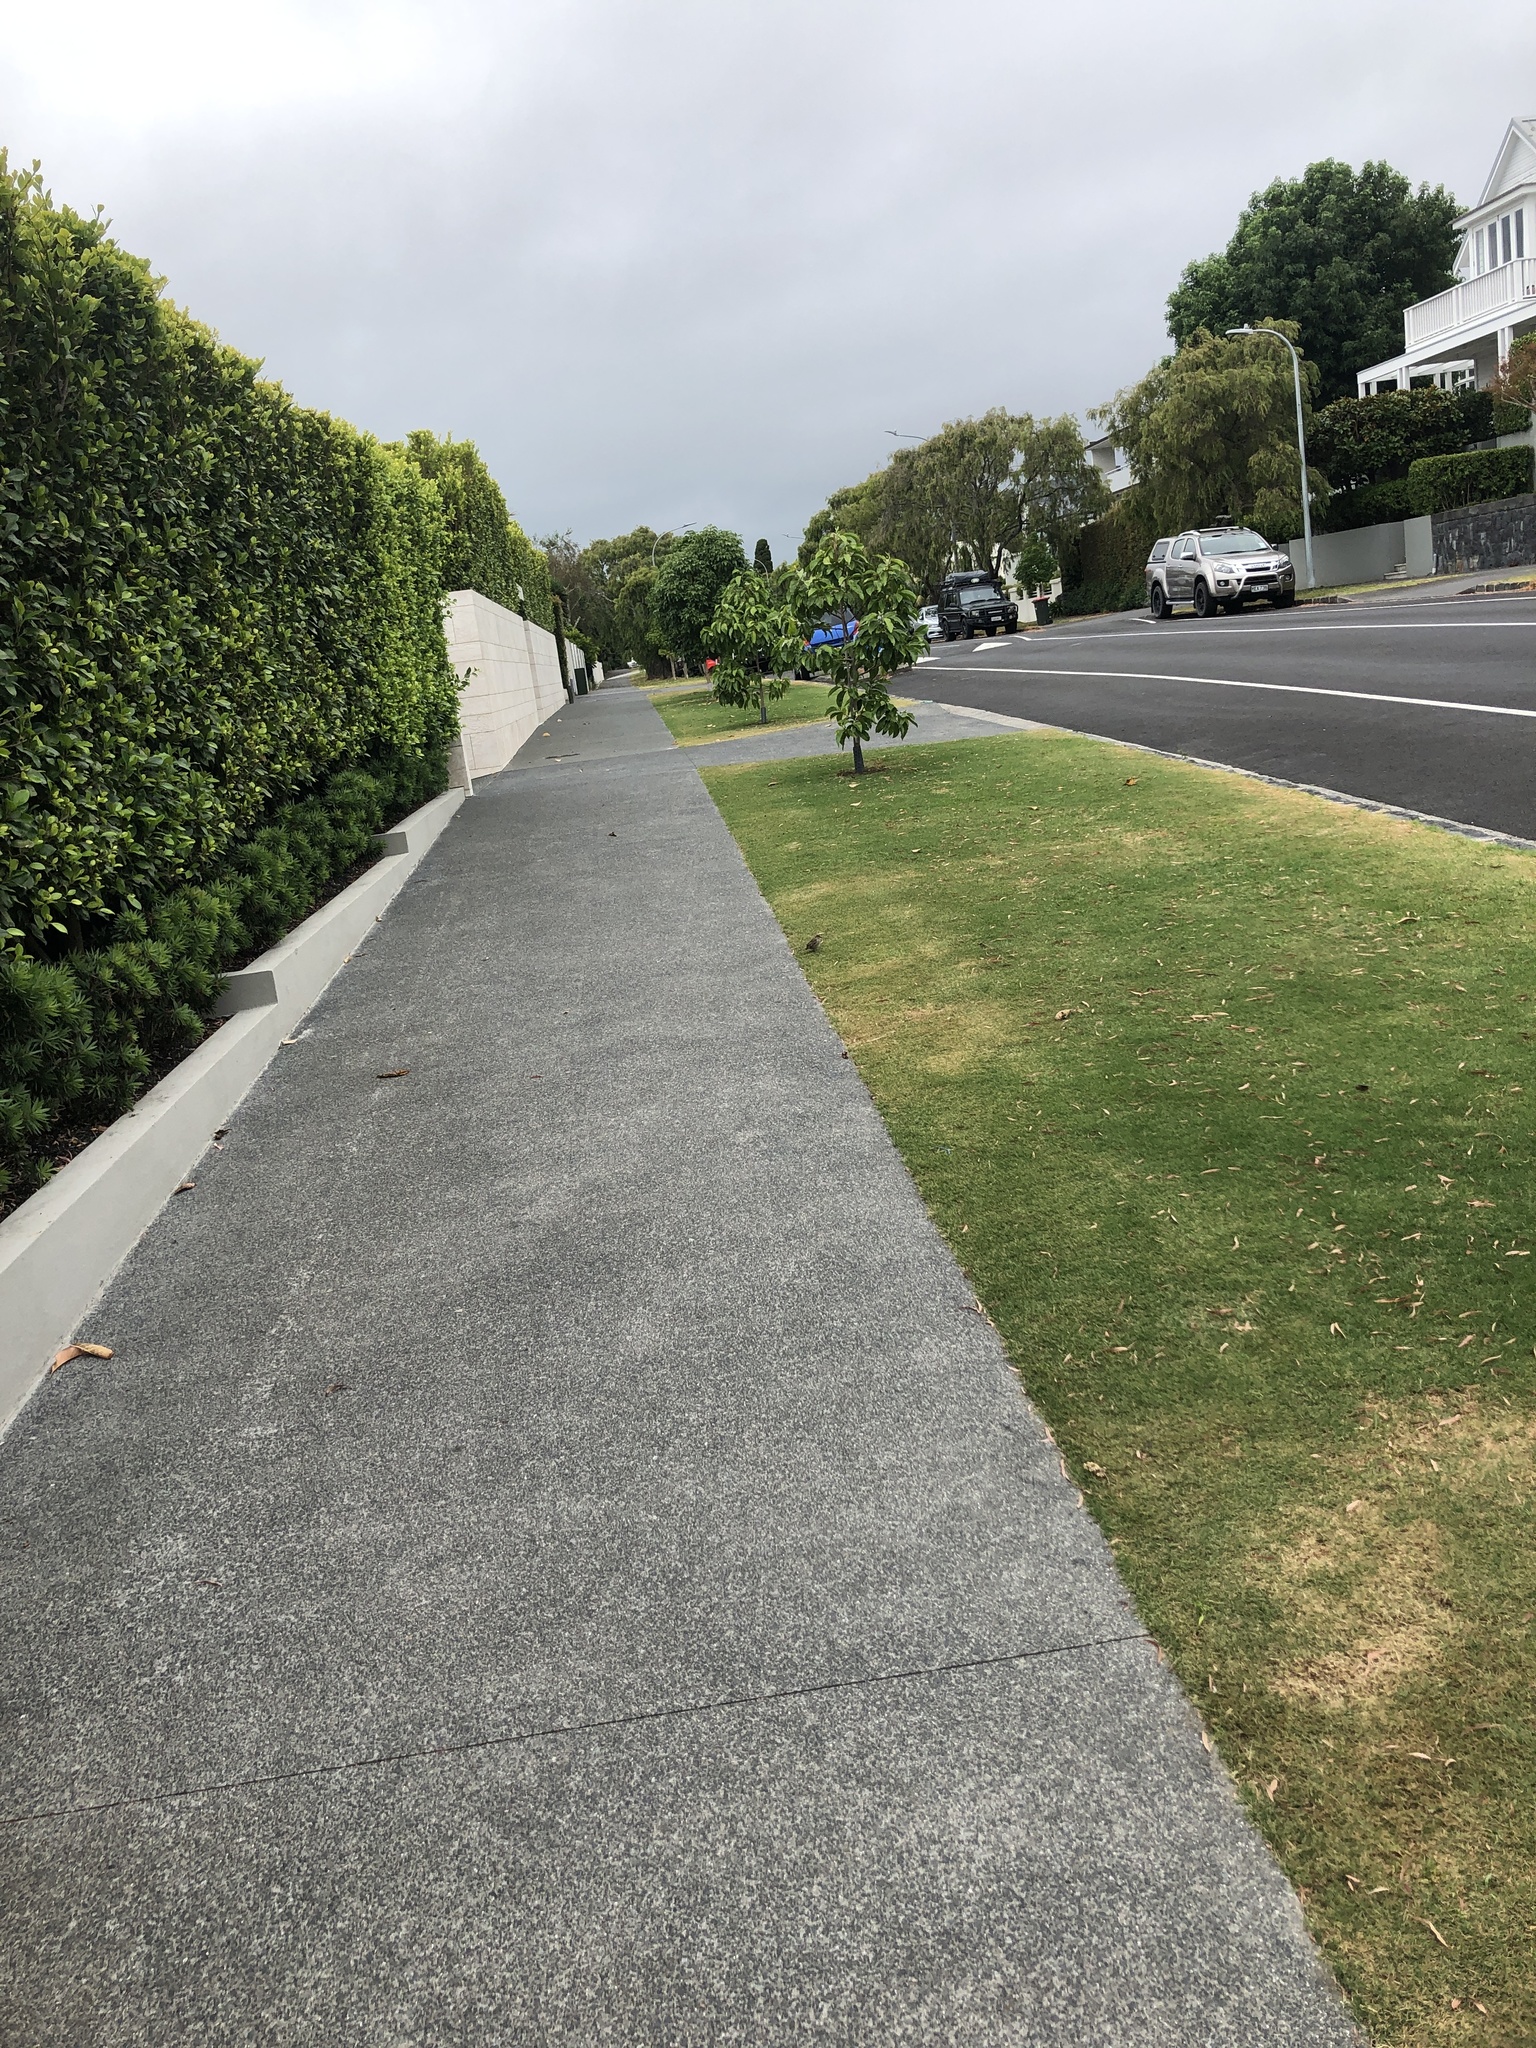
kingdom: Animalia
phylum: Chordata
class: Aves
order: Passeriformes
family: Passeridae
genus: Passer
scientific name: Passer domesticus
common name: House sparrow
